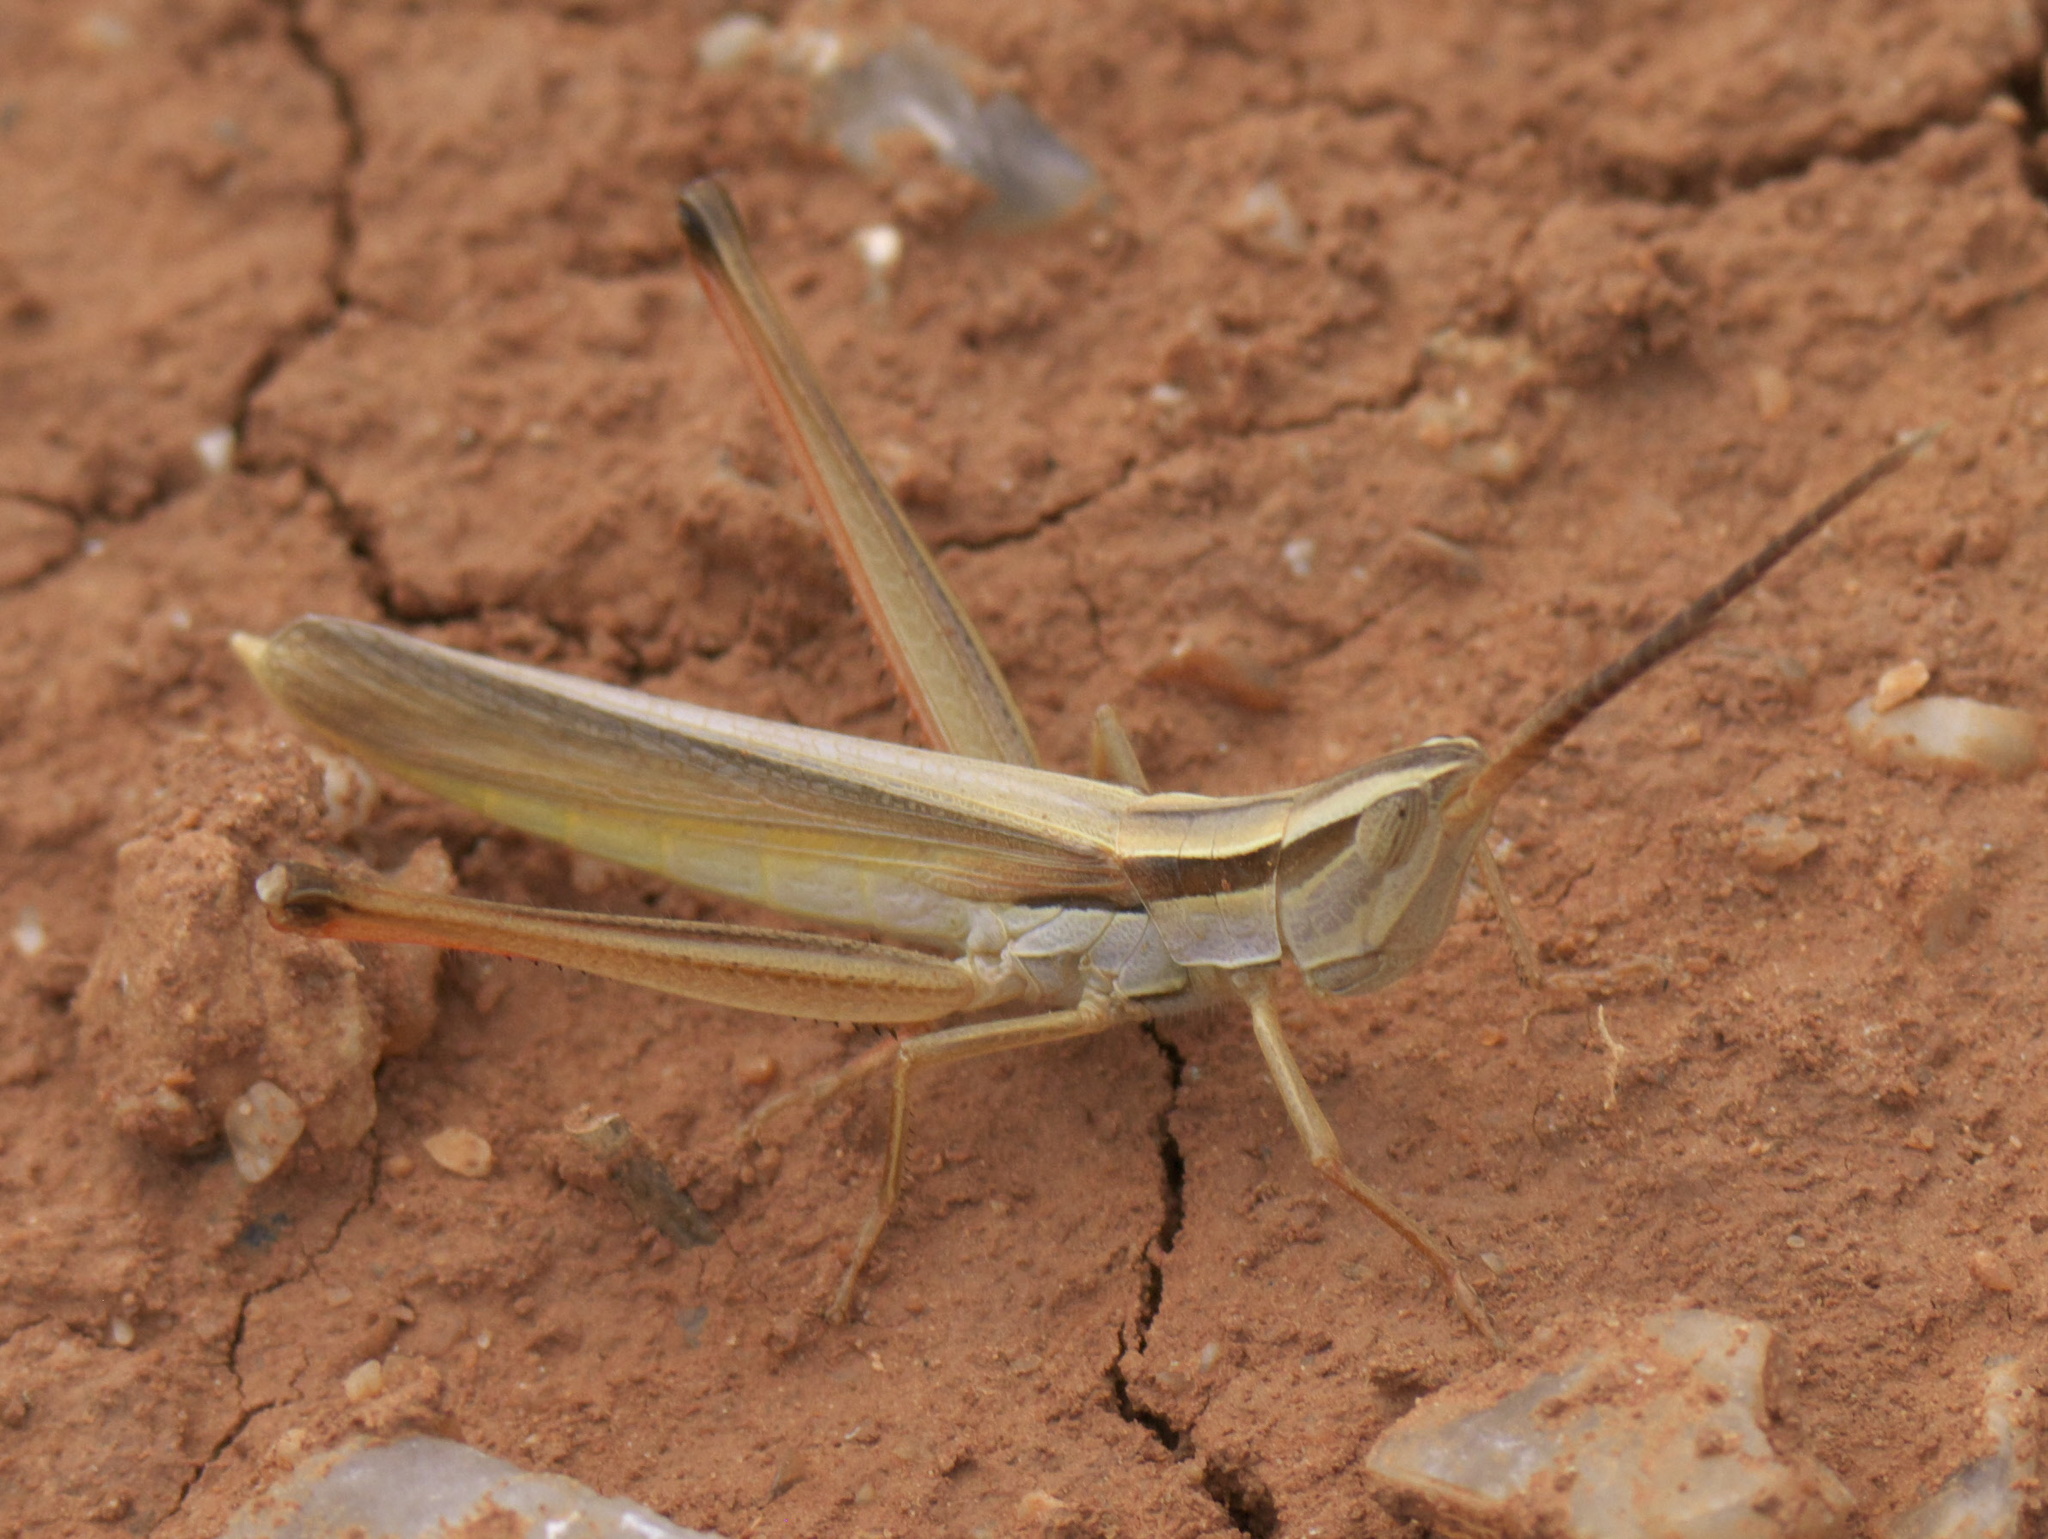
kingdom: Animalia
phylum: Arthropoda
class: Insecta
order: Orthoptera
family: Acrididae
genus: Mermiria
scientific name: Mermiria picta
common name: Lively mermiria grasshopper
